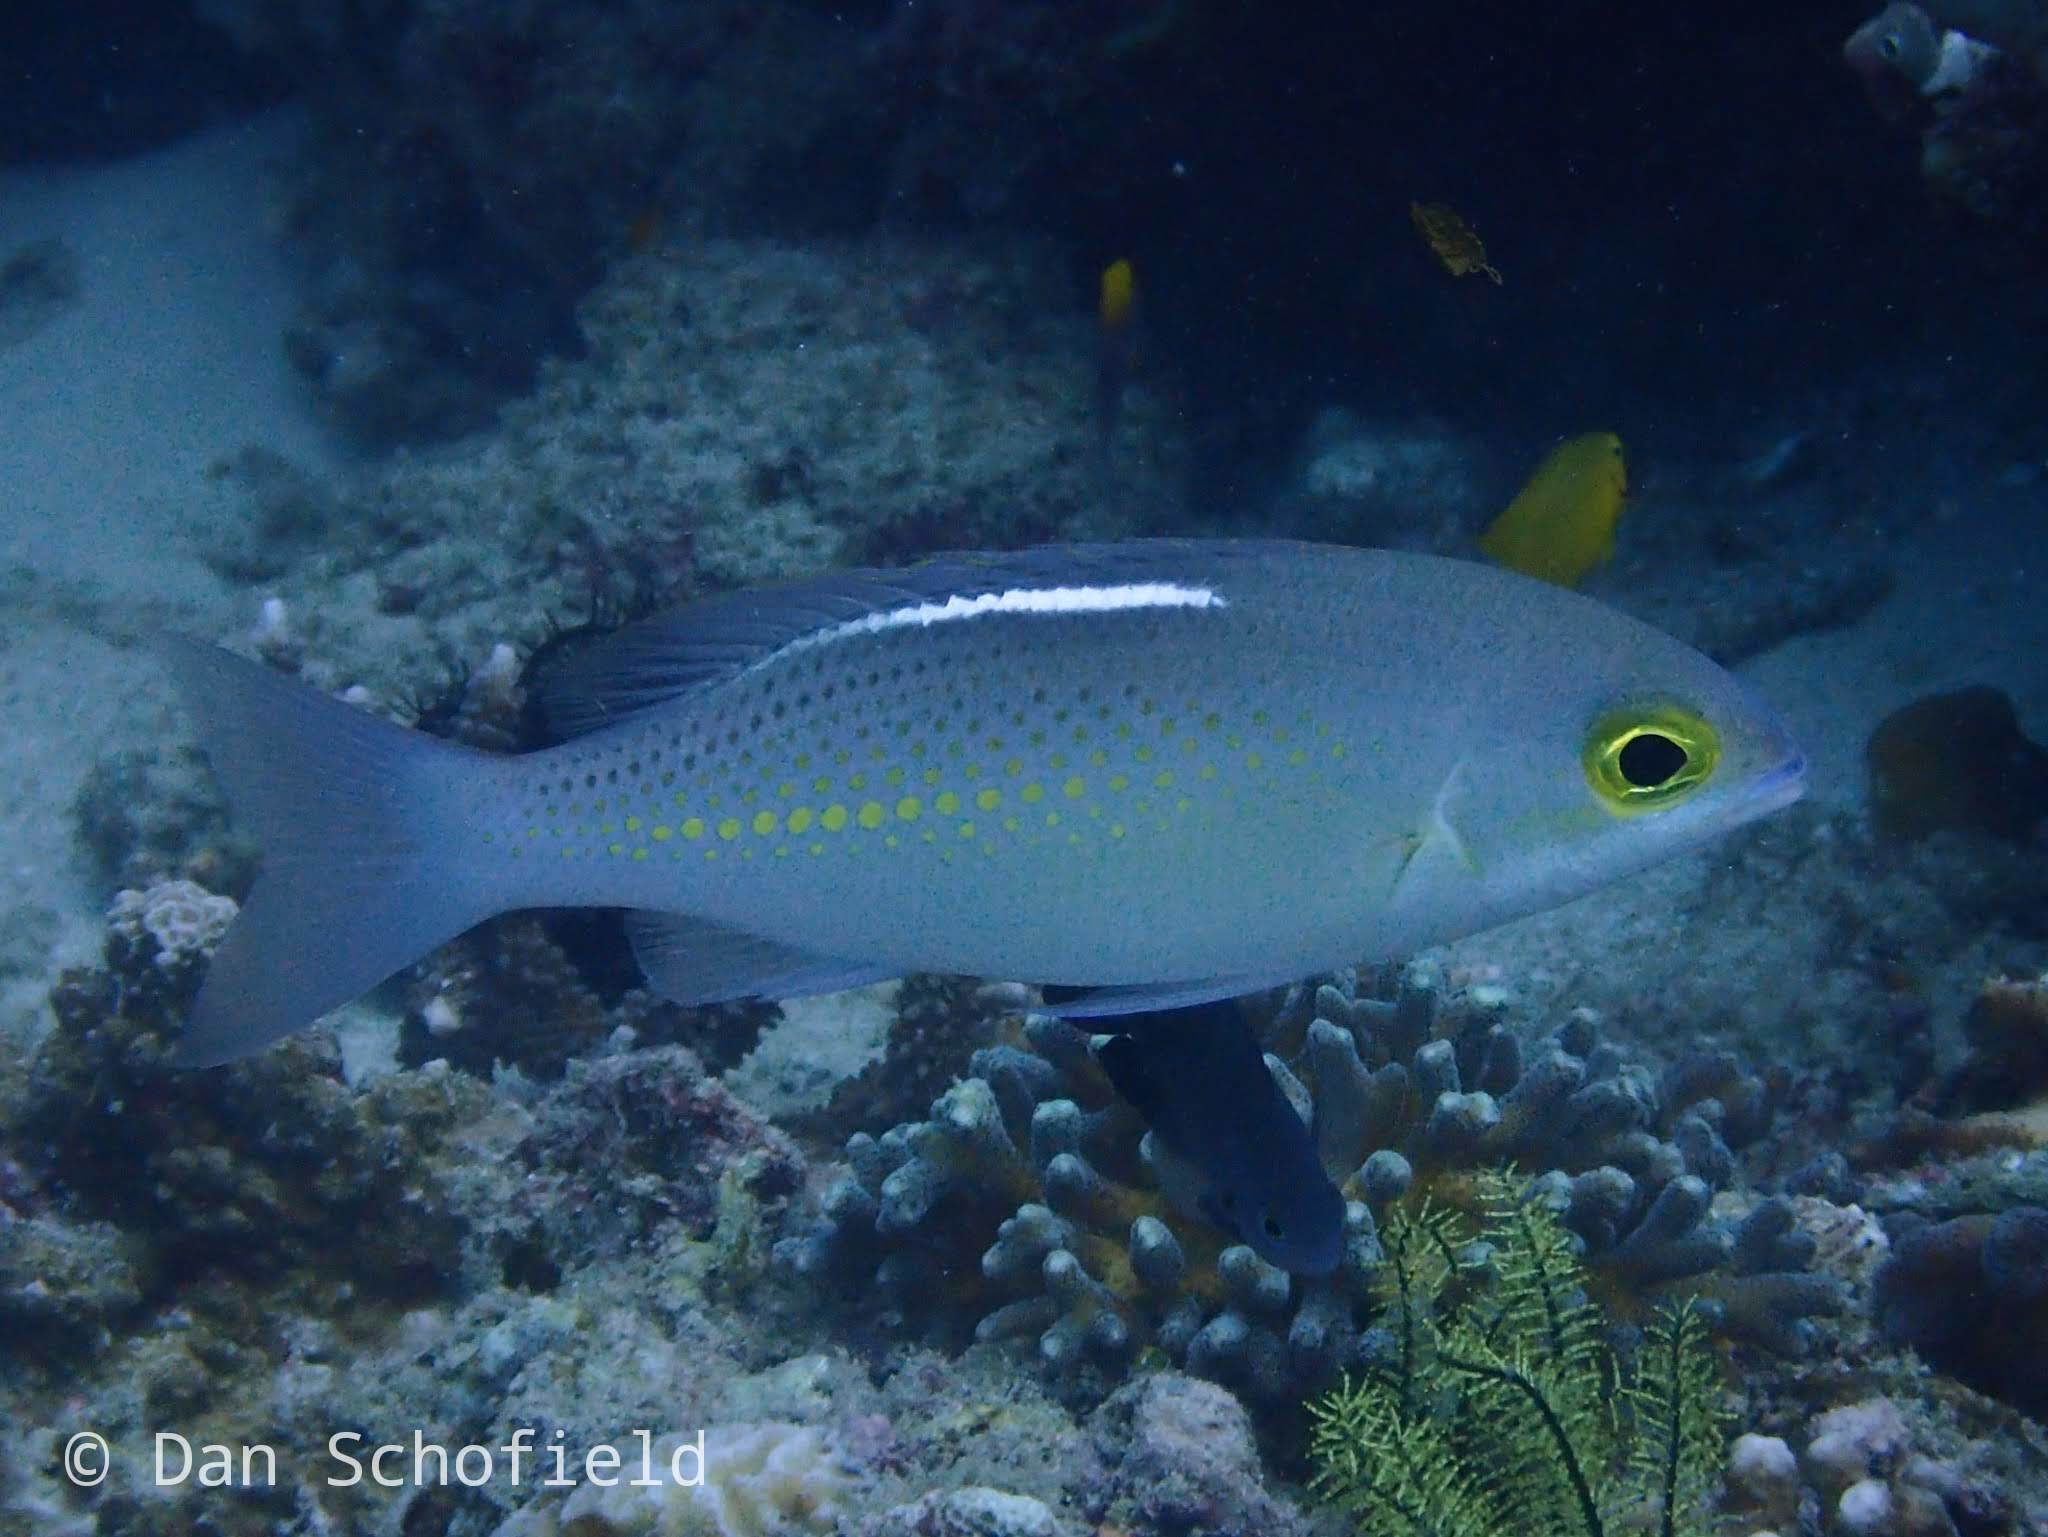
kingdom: Animalia
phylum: Chordata
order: Perciformes
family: Nemipteridae
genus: Scolopsis
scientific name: Scolopsis ciliata
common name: Ciliate spinecheek
